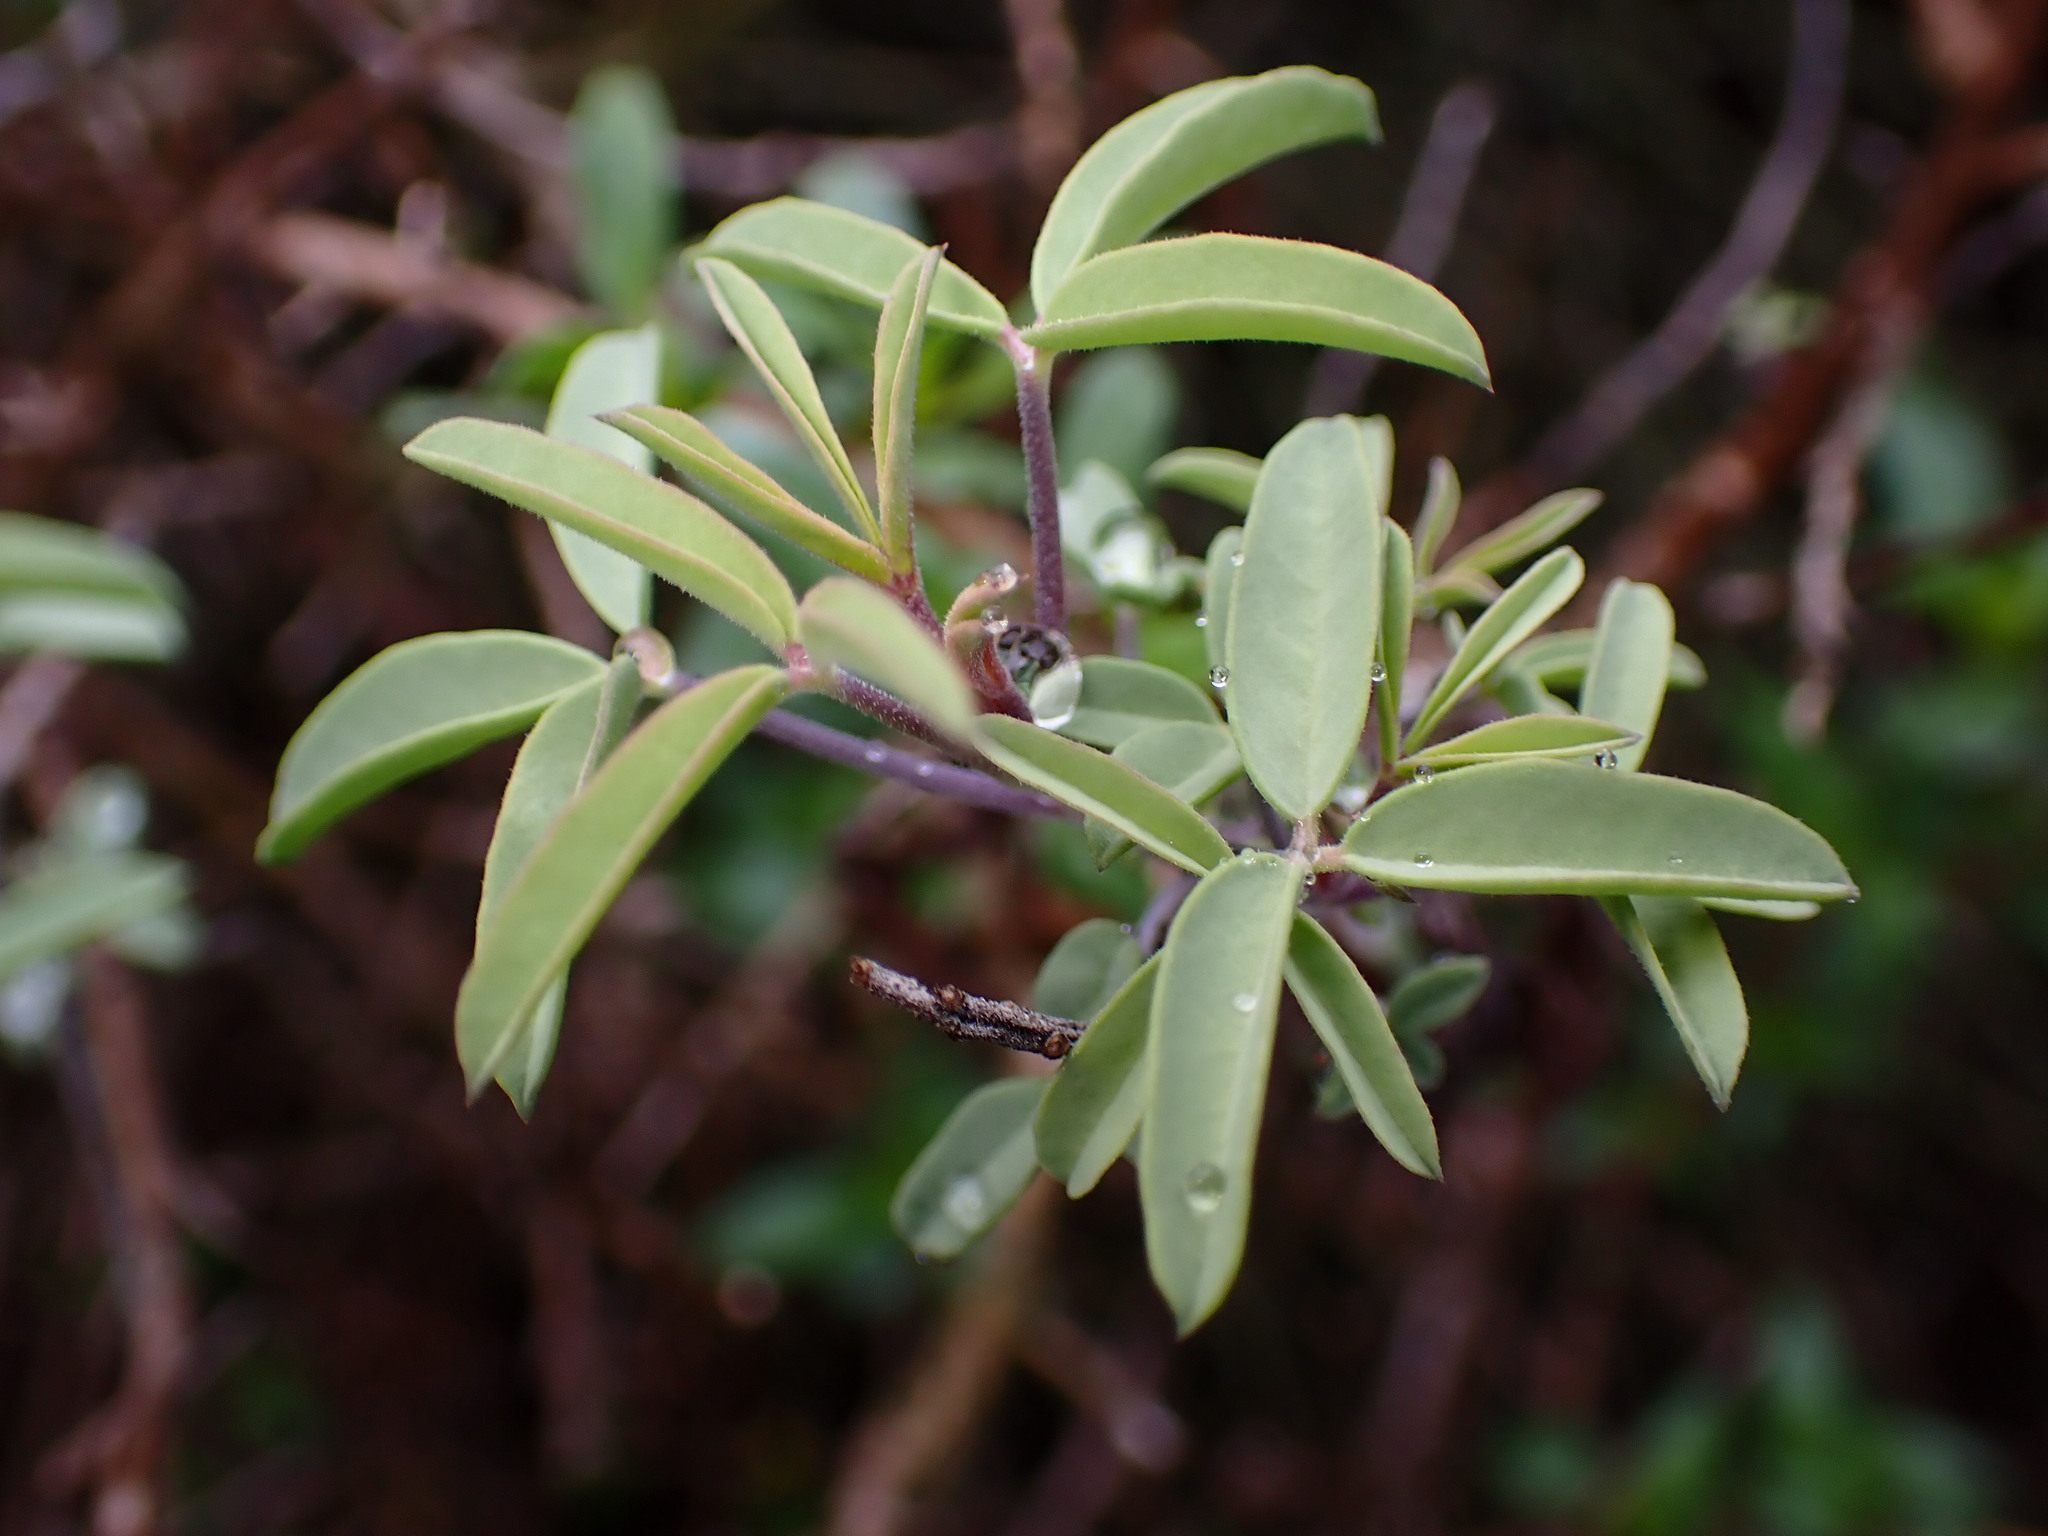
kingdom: Plantae
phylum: Tracheophyta
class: Magnoliopsida
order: Brassicales
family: Cleomaceae
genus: Cleomella
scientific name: Cleomella arborea
